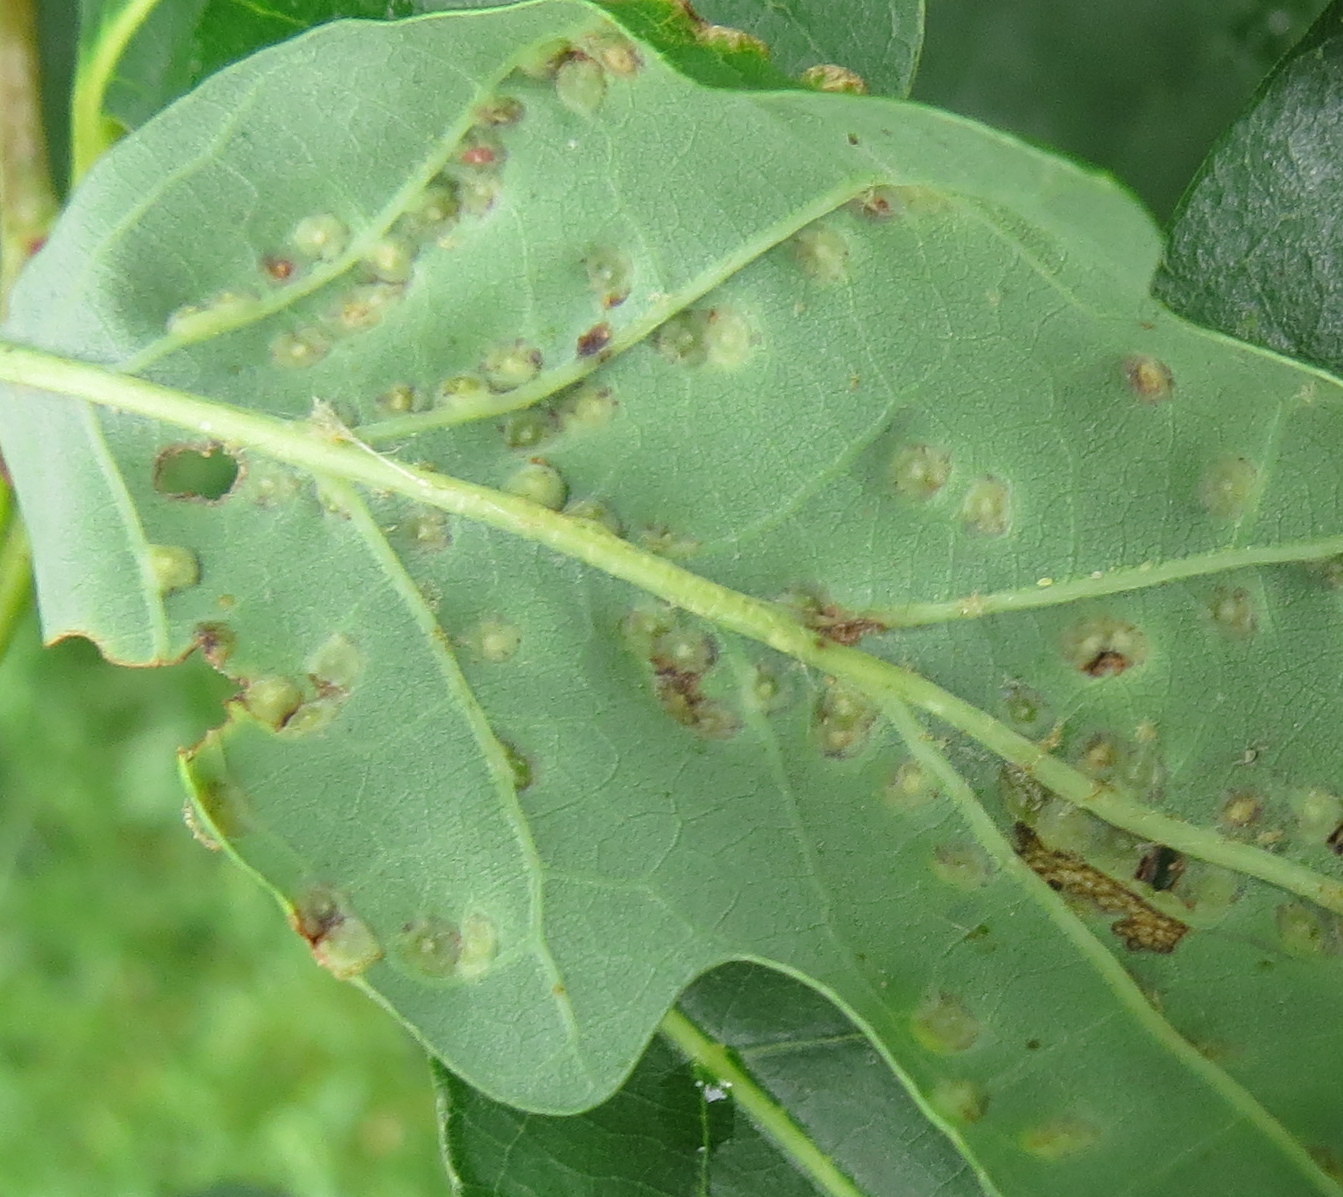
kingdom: Animalia
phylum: Arthropoda
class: Insecta
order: Hymenoptera
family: Cynipidae
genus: Neuroterus
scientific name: Neuroterus niger
